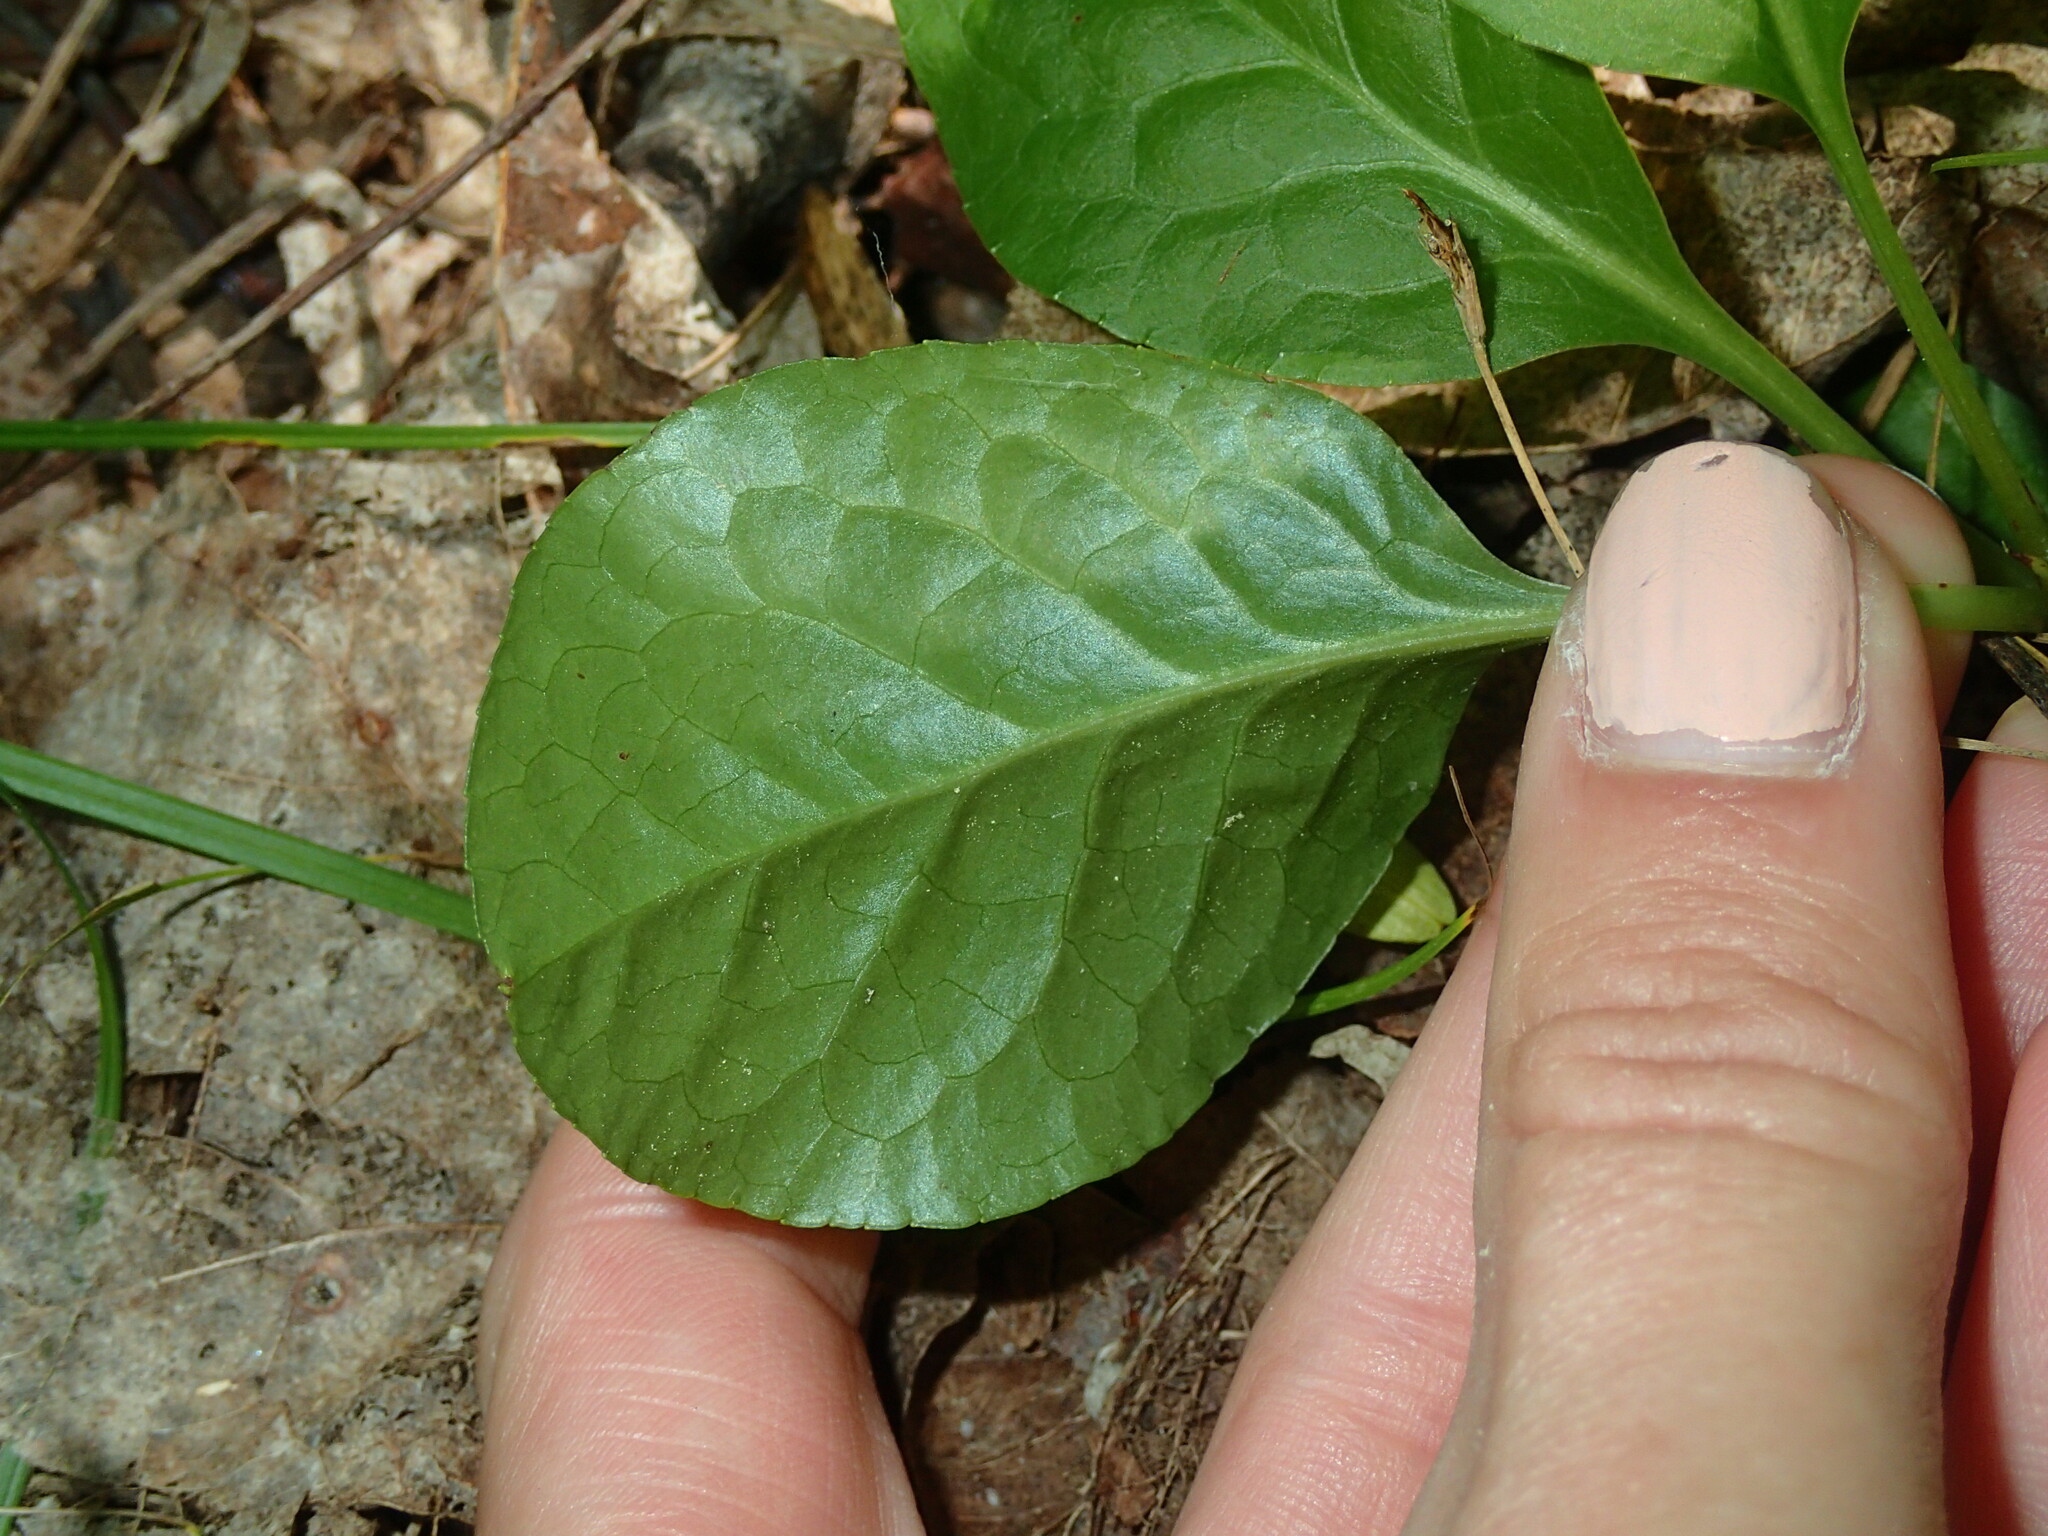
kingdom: Plantae
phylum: Tracheophyta
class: Magnoliopsida
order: Ericales
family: Ericaceae
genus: Pyrola
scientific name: Pyrola elliptica
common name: Shinleaf
